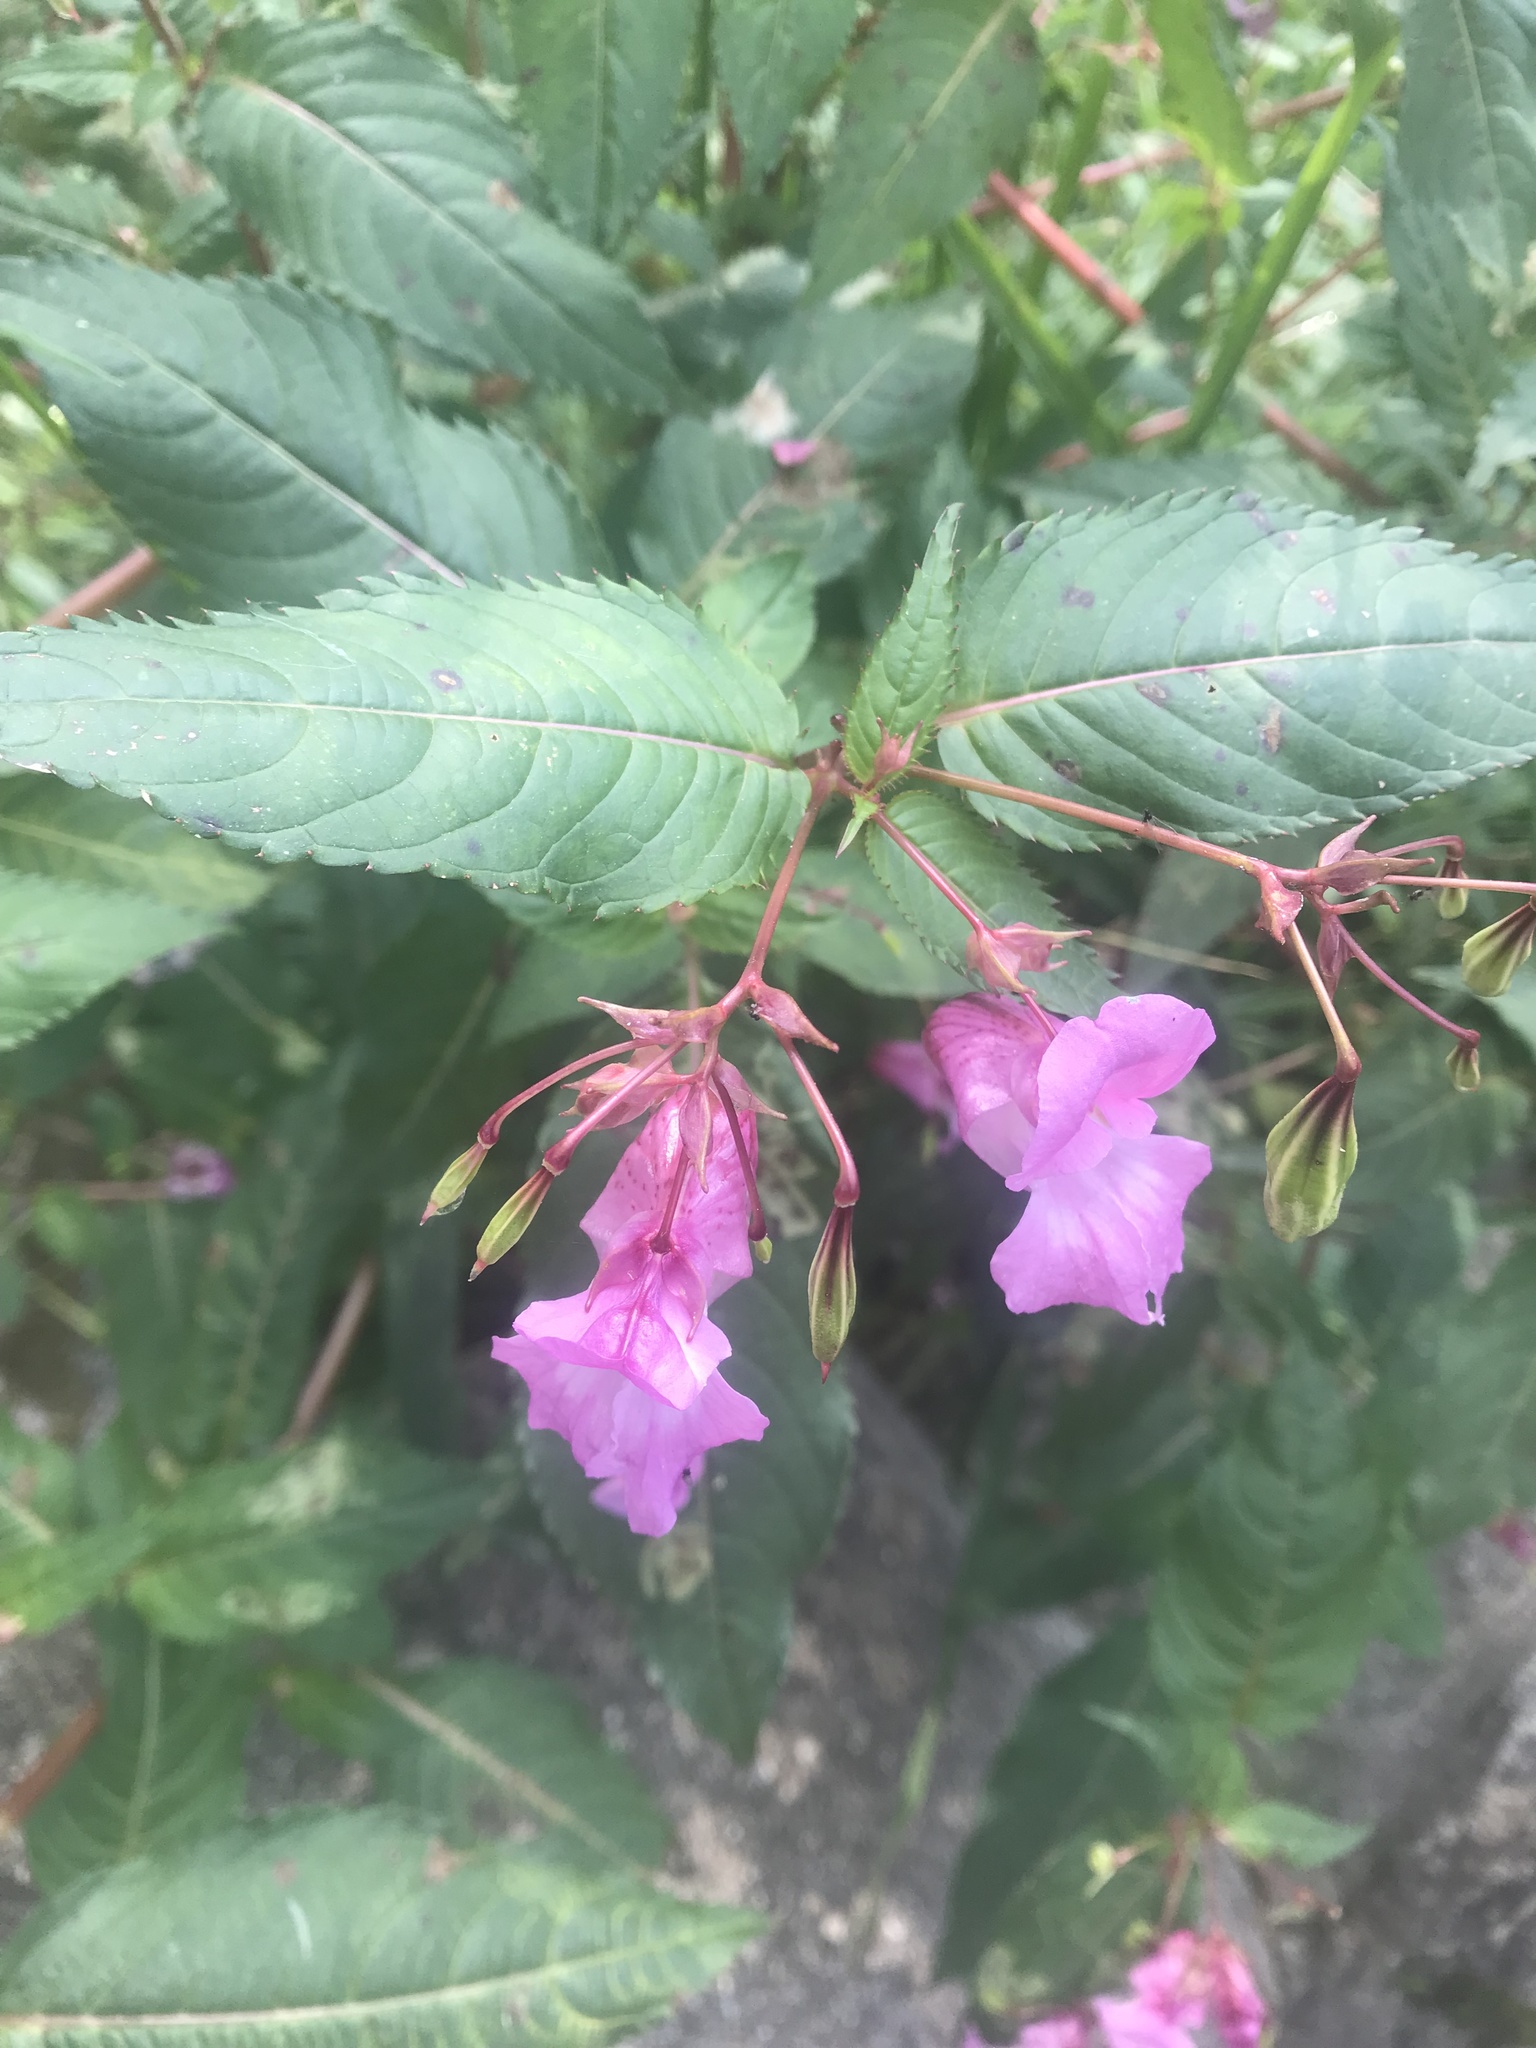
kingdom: Plantae
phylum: Tracheophyta
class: Magnoliopsida
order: Ericales
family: Balsaminaceae
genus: Impatiens
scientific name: Impatiens glandulifera
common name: Himalayan balsam
